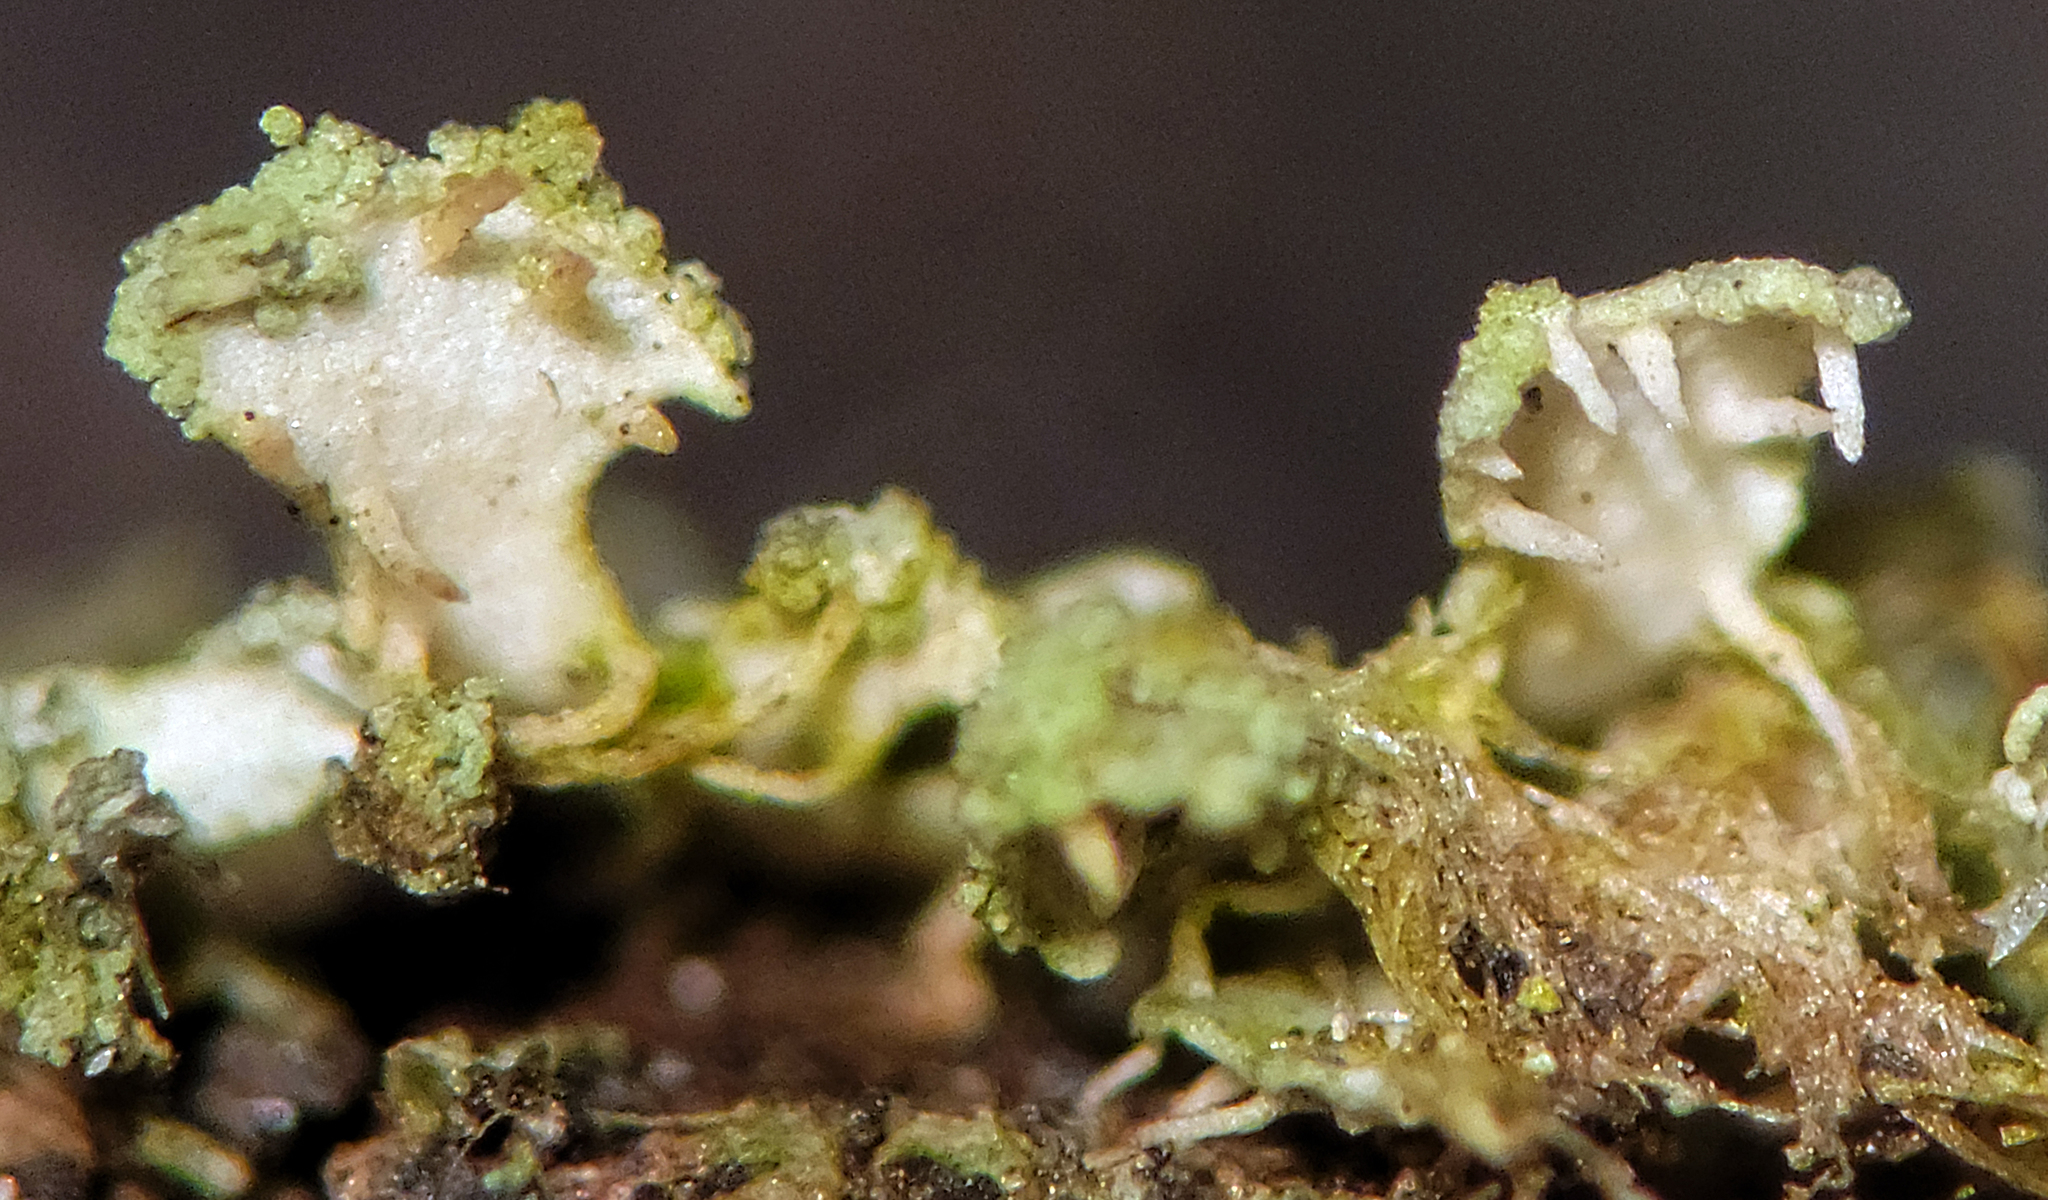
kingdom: Fungi
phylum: Ascomycota
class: Lecanoromycetes
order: Caliciales
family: Physciaceae
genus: Physciella
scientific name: Physciella chloantha
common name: Cryptic rosette lichen
